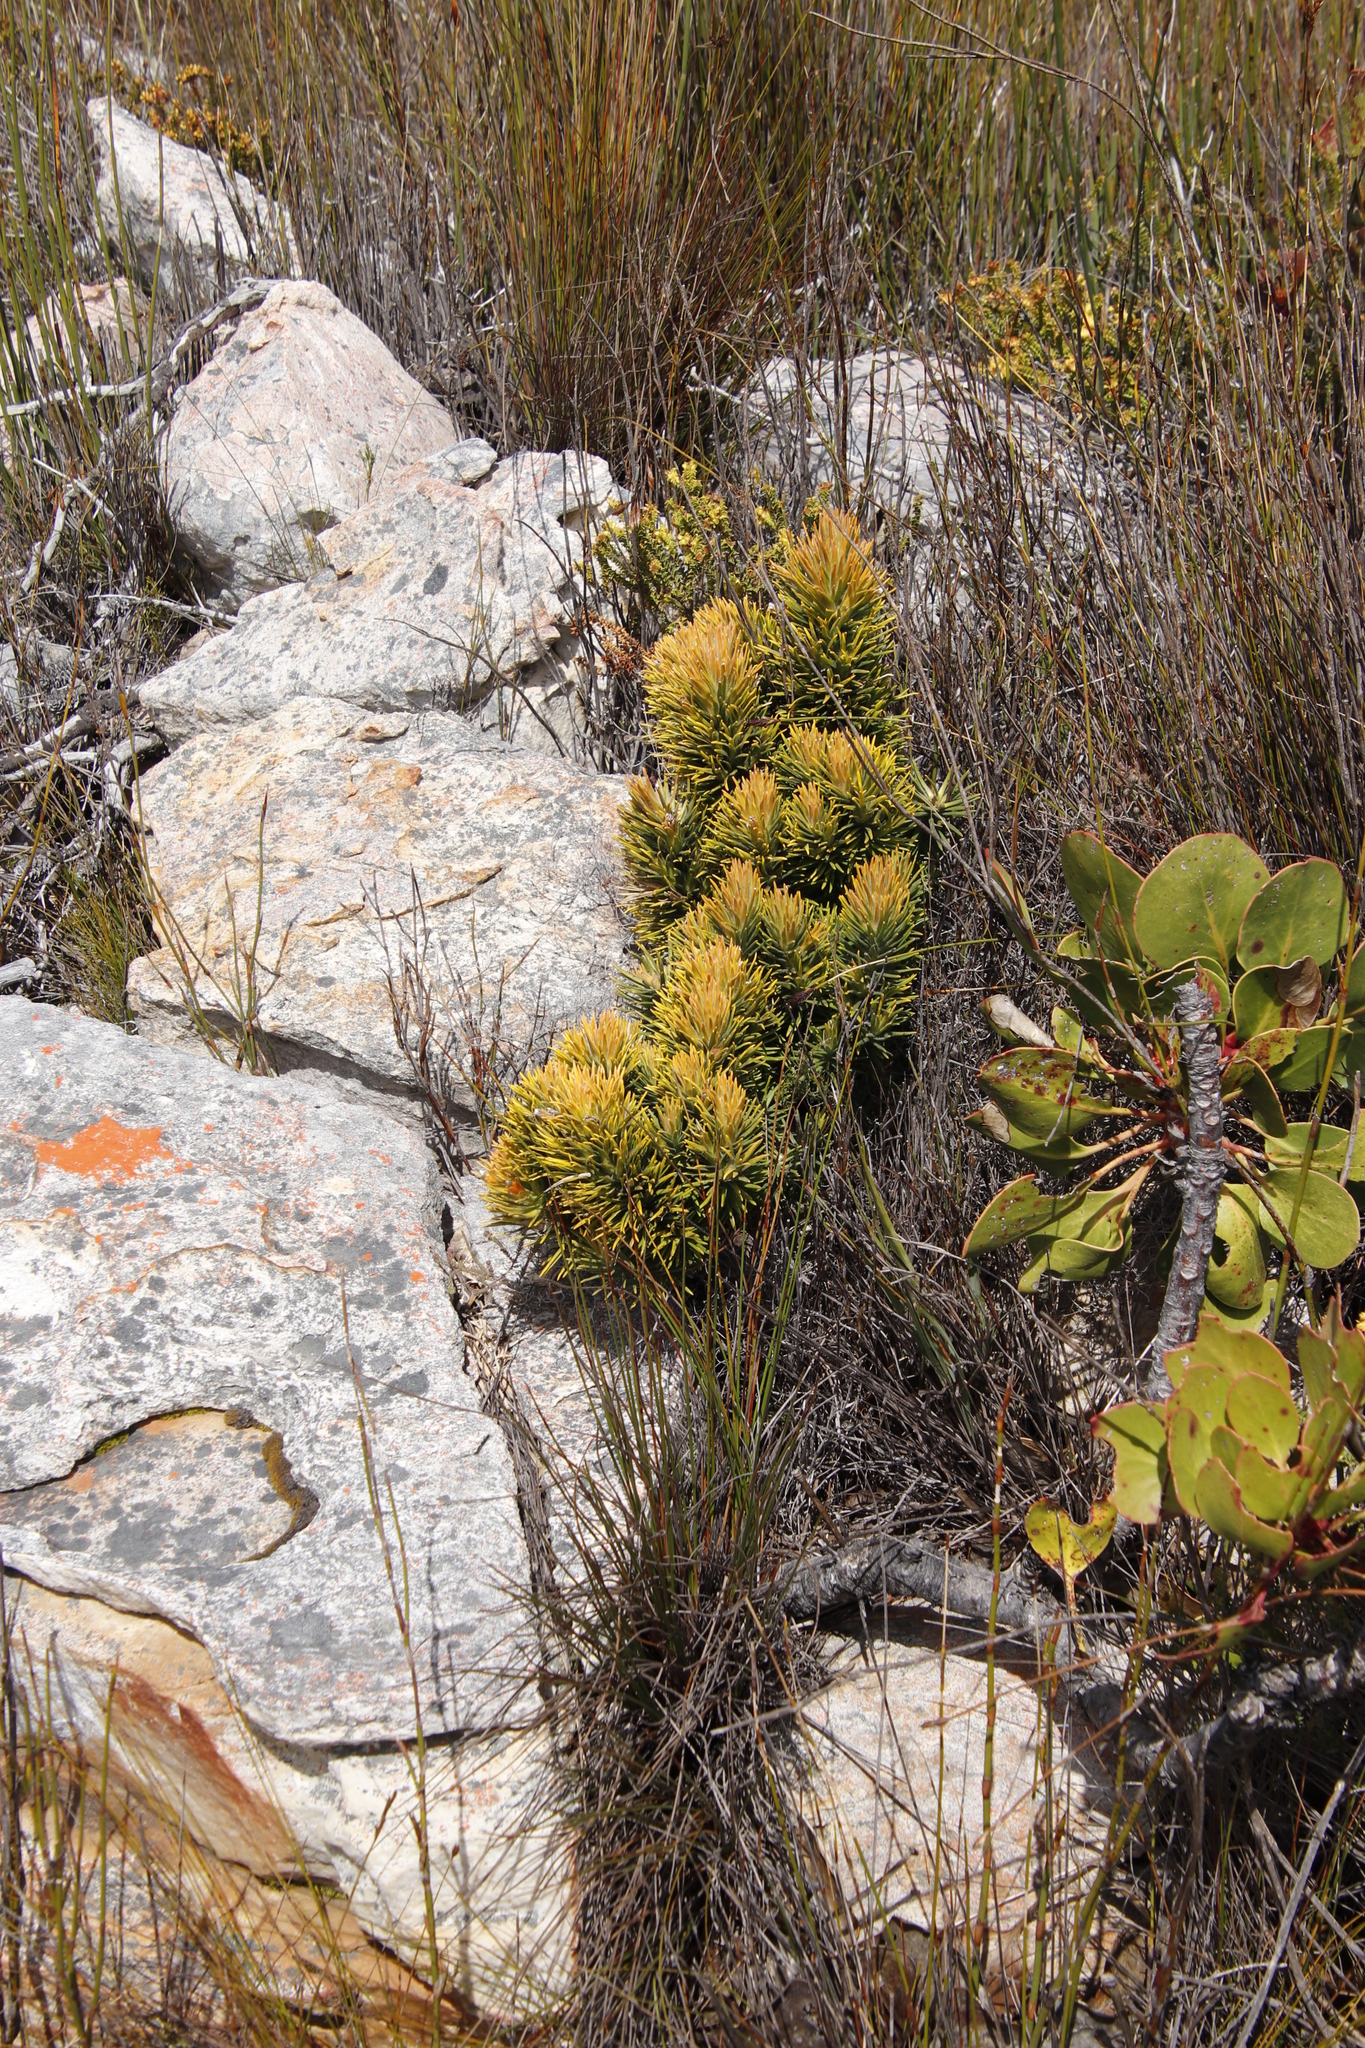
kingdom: Plantae
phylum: Tracheophyta
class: Magnoliopsida
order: Lamiales
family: Stilbaceae
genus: Retzia
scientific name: Retzia capensis
